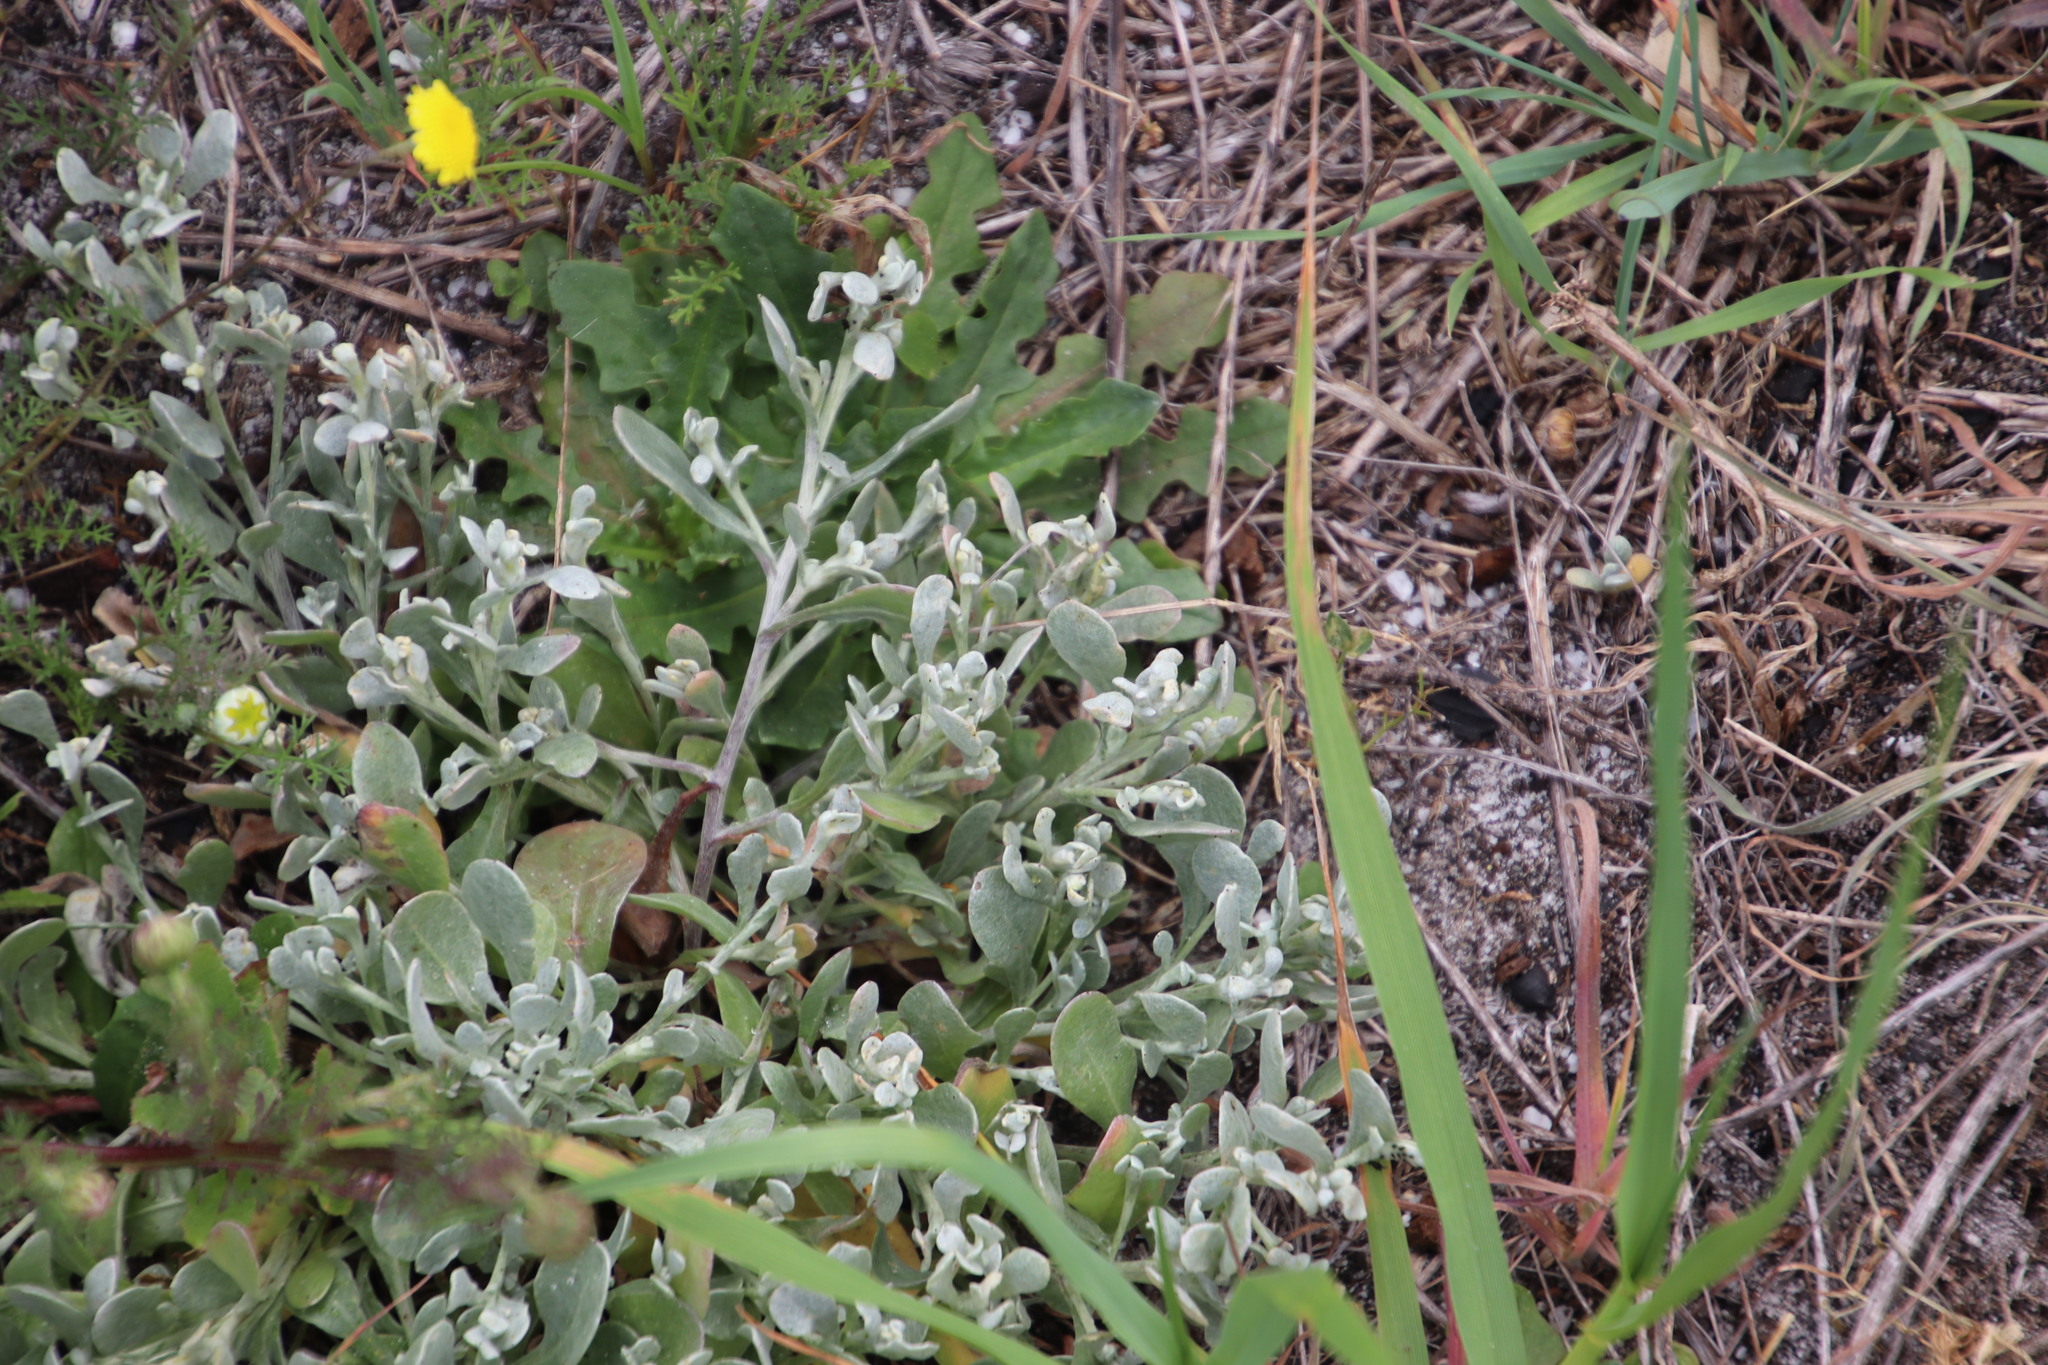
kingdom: Plantae
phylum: Tracheophyta
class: Magnoliopsida
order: Asterales
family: Asteraceae
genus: Helichrysum
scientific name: Helichrysum indicum
